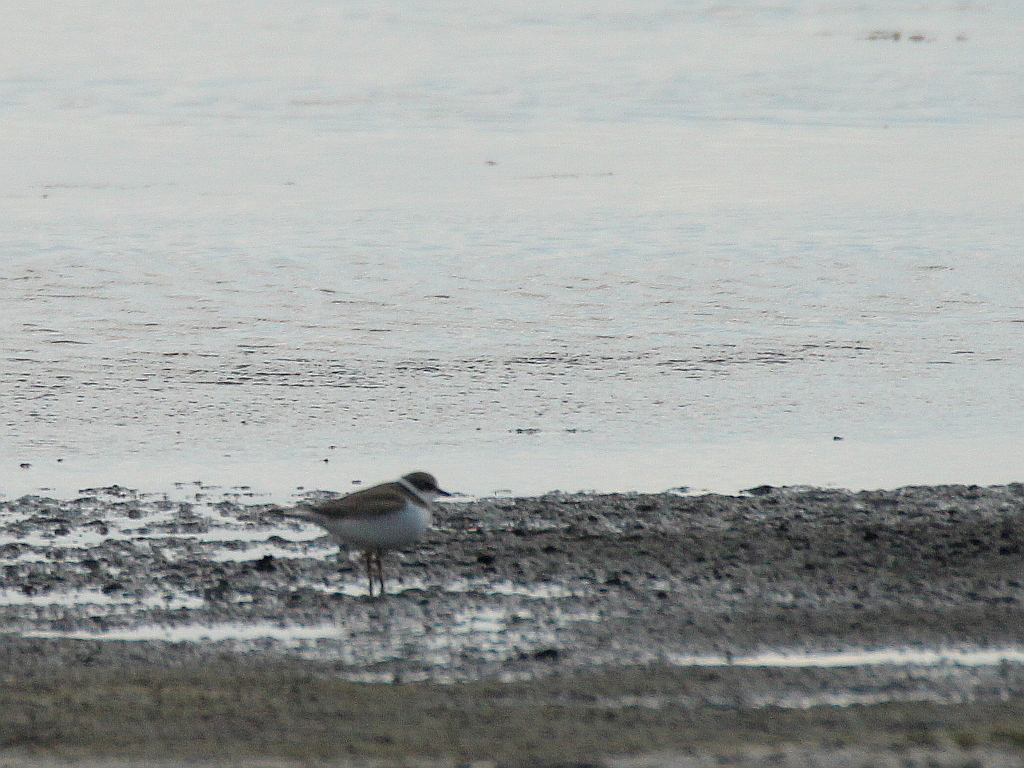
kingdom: Animalia
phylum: Chordata
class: Aves
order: Charadriiformes
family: Charadriidae
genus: Charadrius
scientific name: Charadrius dubius
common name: Little ringed plover
